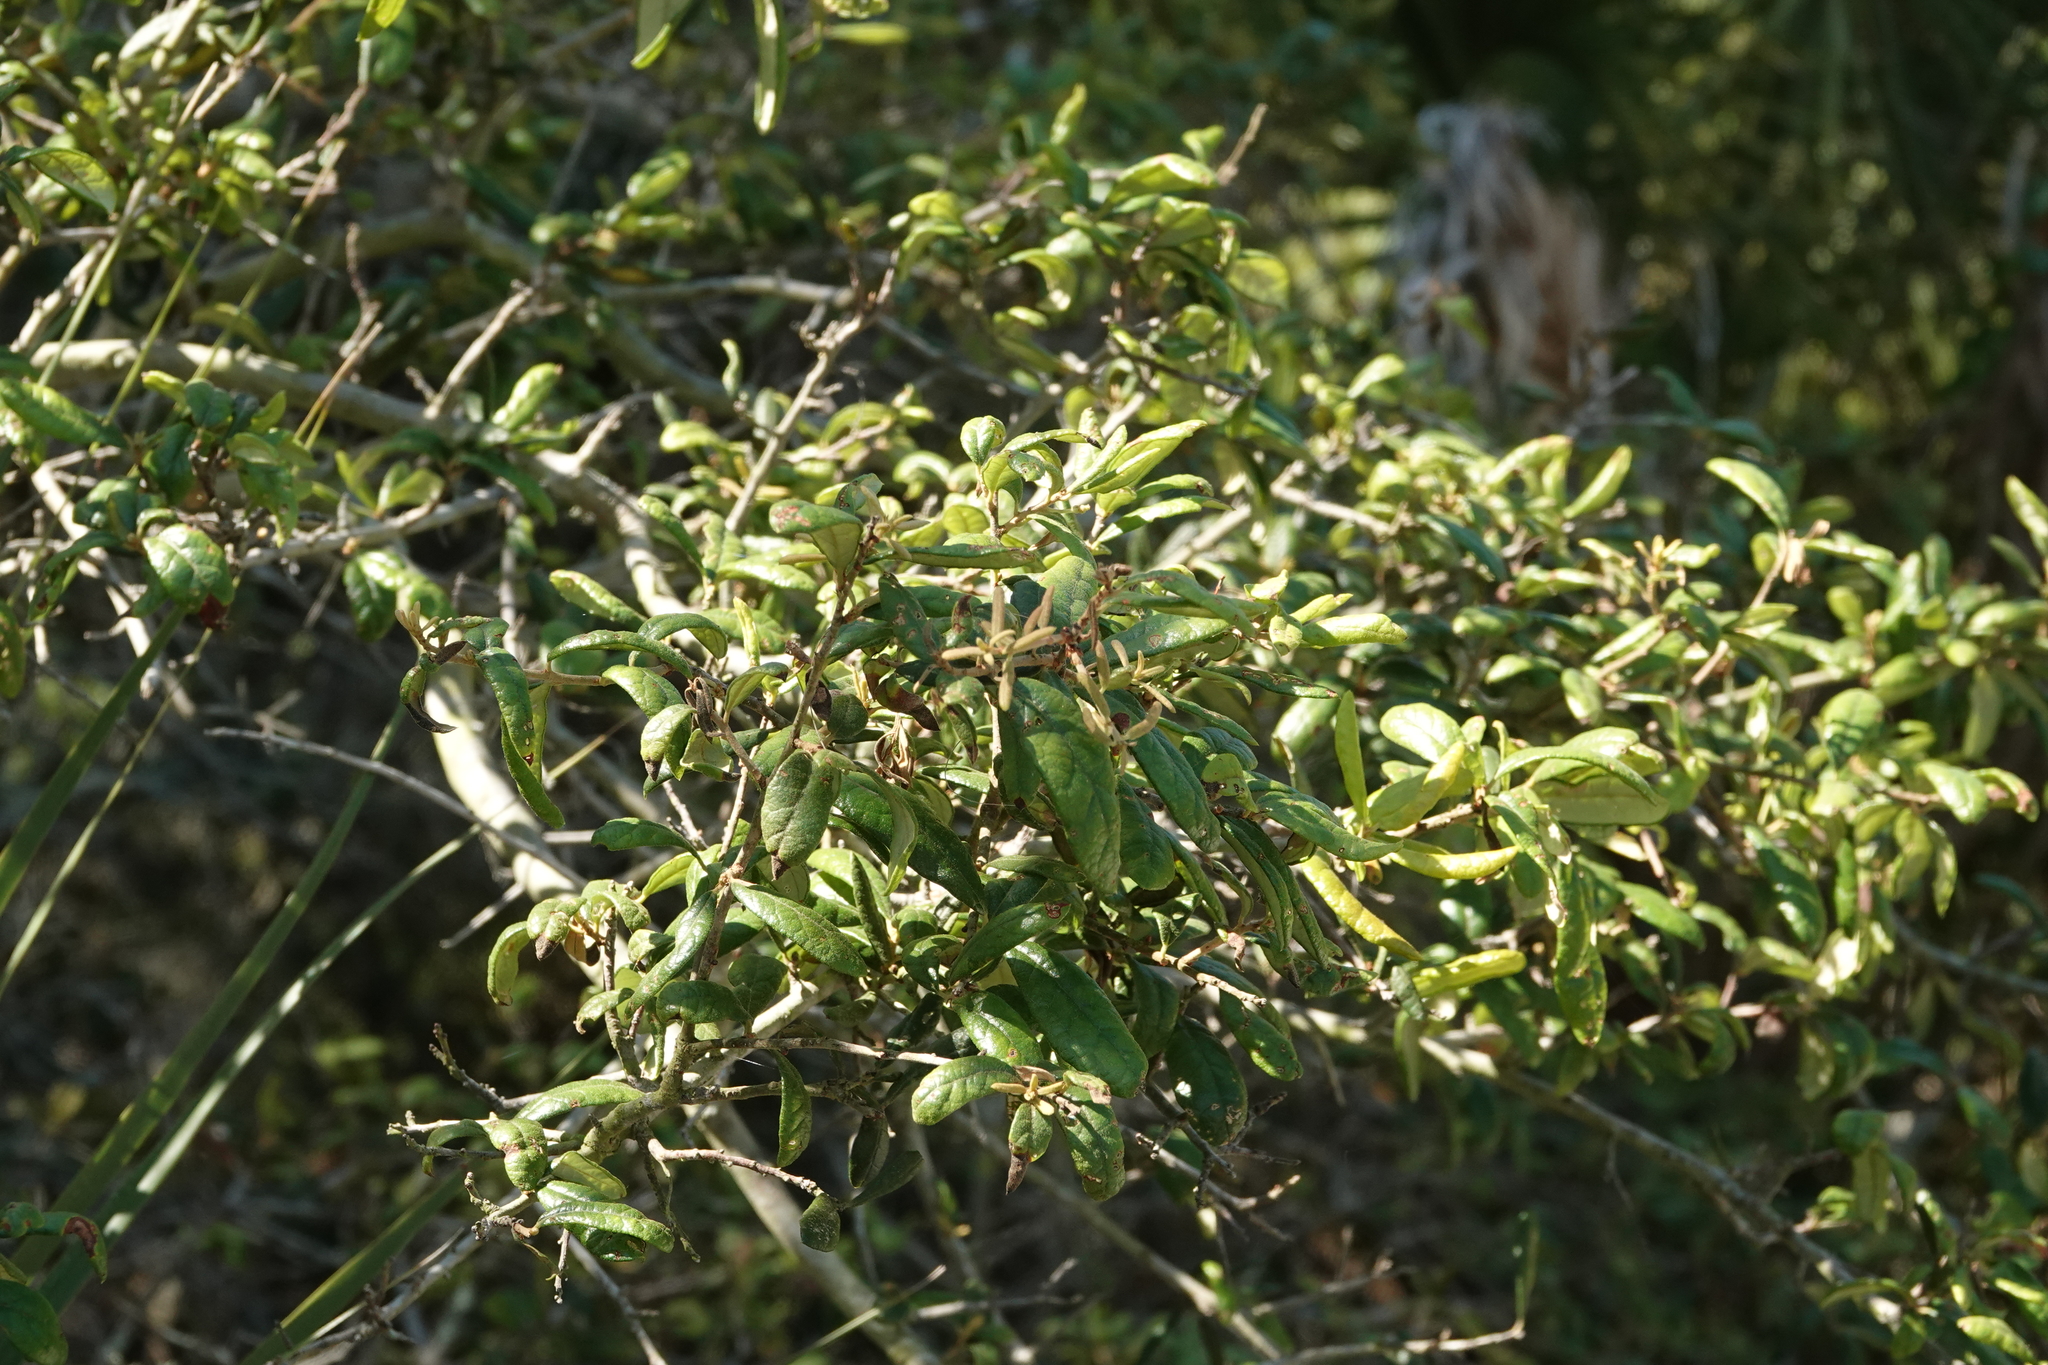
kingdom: Plantae
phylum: Tracheophyta
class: Magnoliopsida
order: Fagales
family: Fagaceae
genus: Quercus
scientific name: Quercus geminata
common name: Sand live oak
